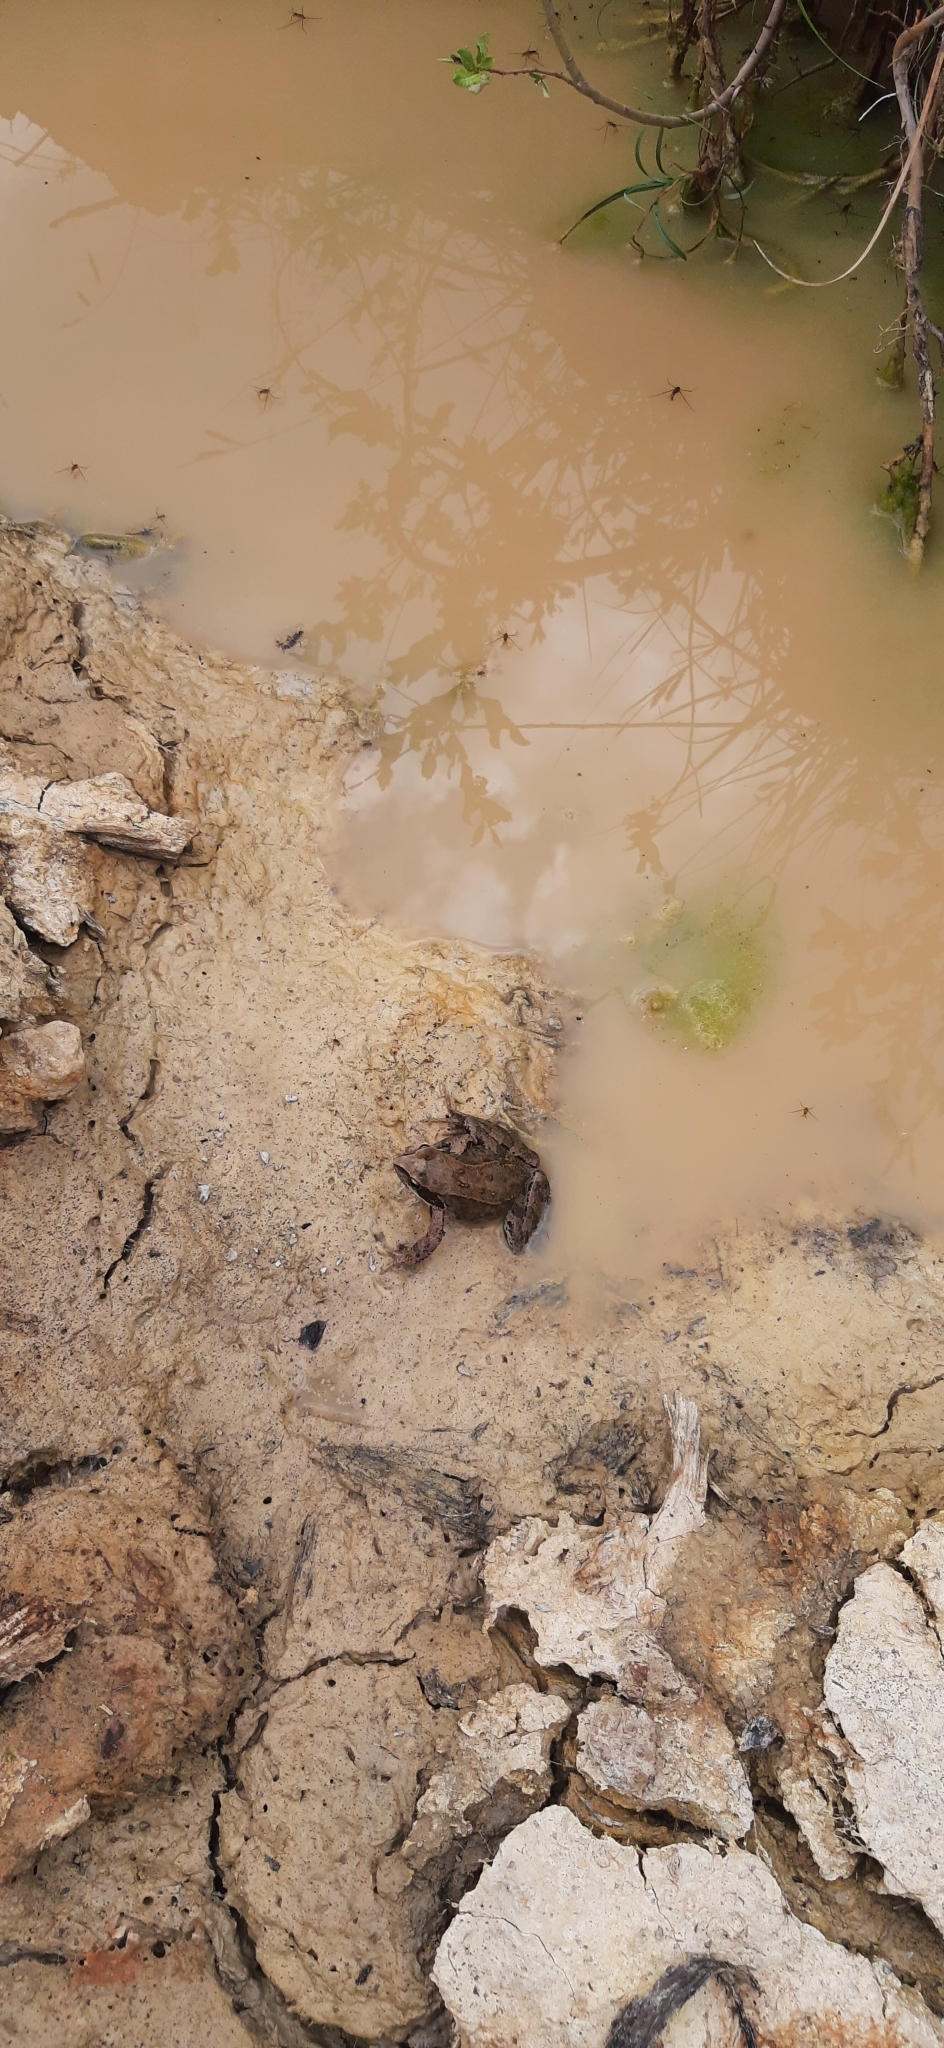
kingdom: Animalia
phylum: Chordata
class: Amphibia
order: Anura
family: Ranidae
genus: Rana
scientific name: Rana temporaria
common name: Common frog
